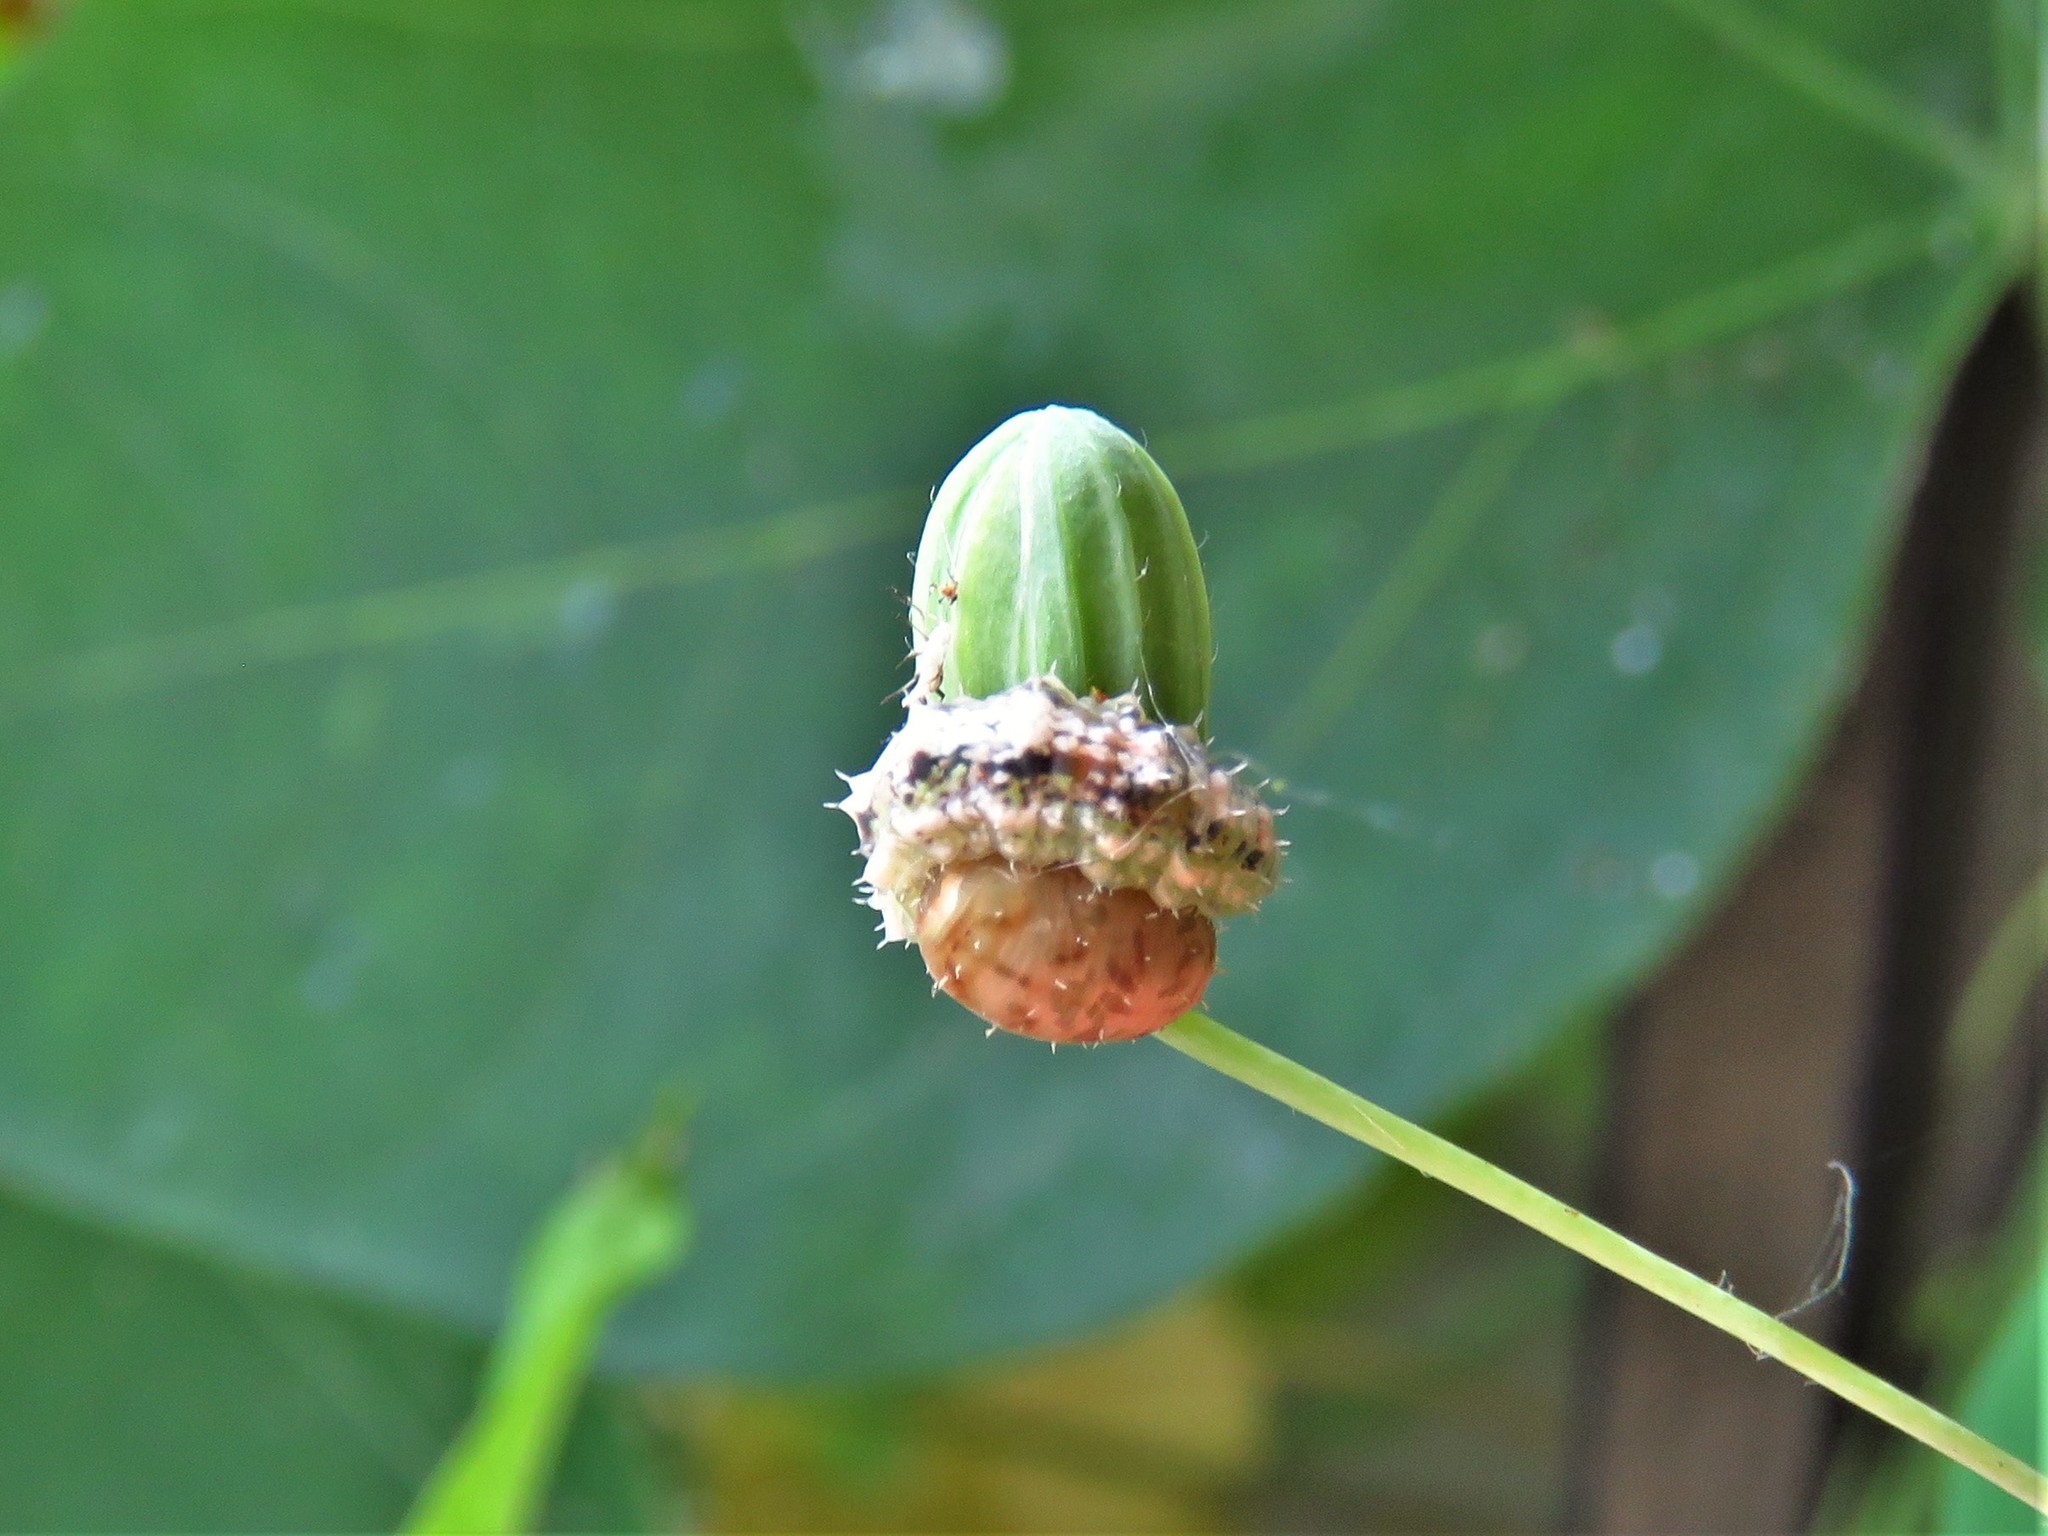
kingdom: Animalia
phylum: Arthropoda
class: Insecta
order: Diptera
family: Syrphidae
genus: Dioprosopa
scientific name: Dioprosopa clavatus
